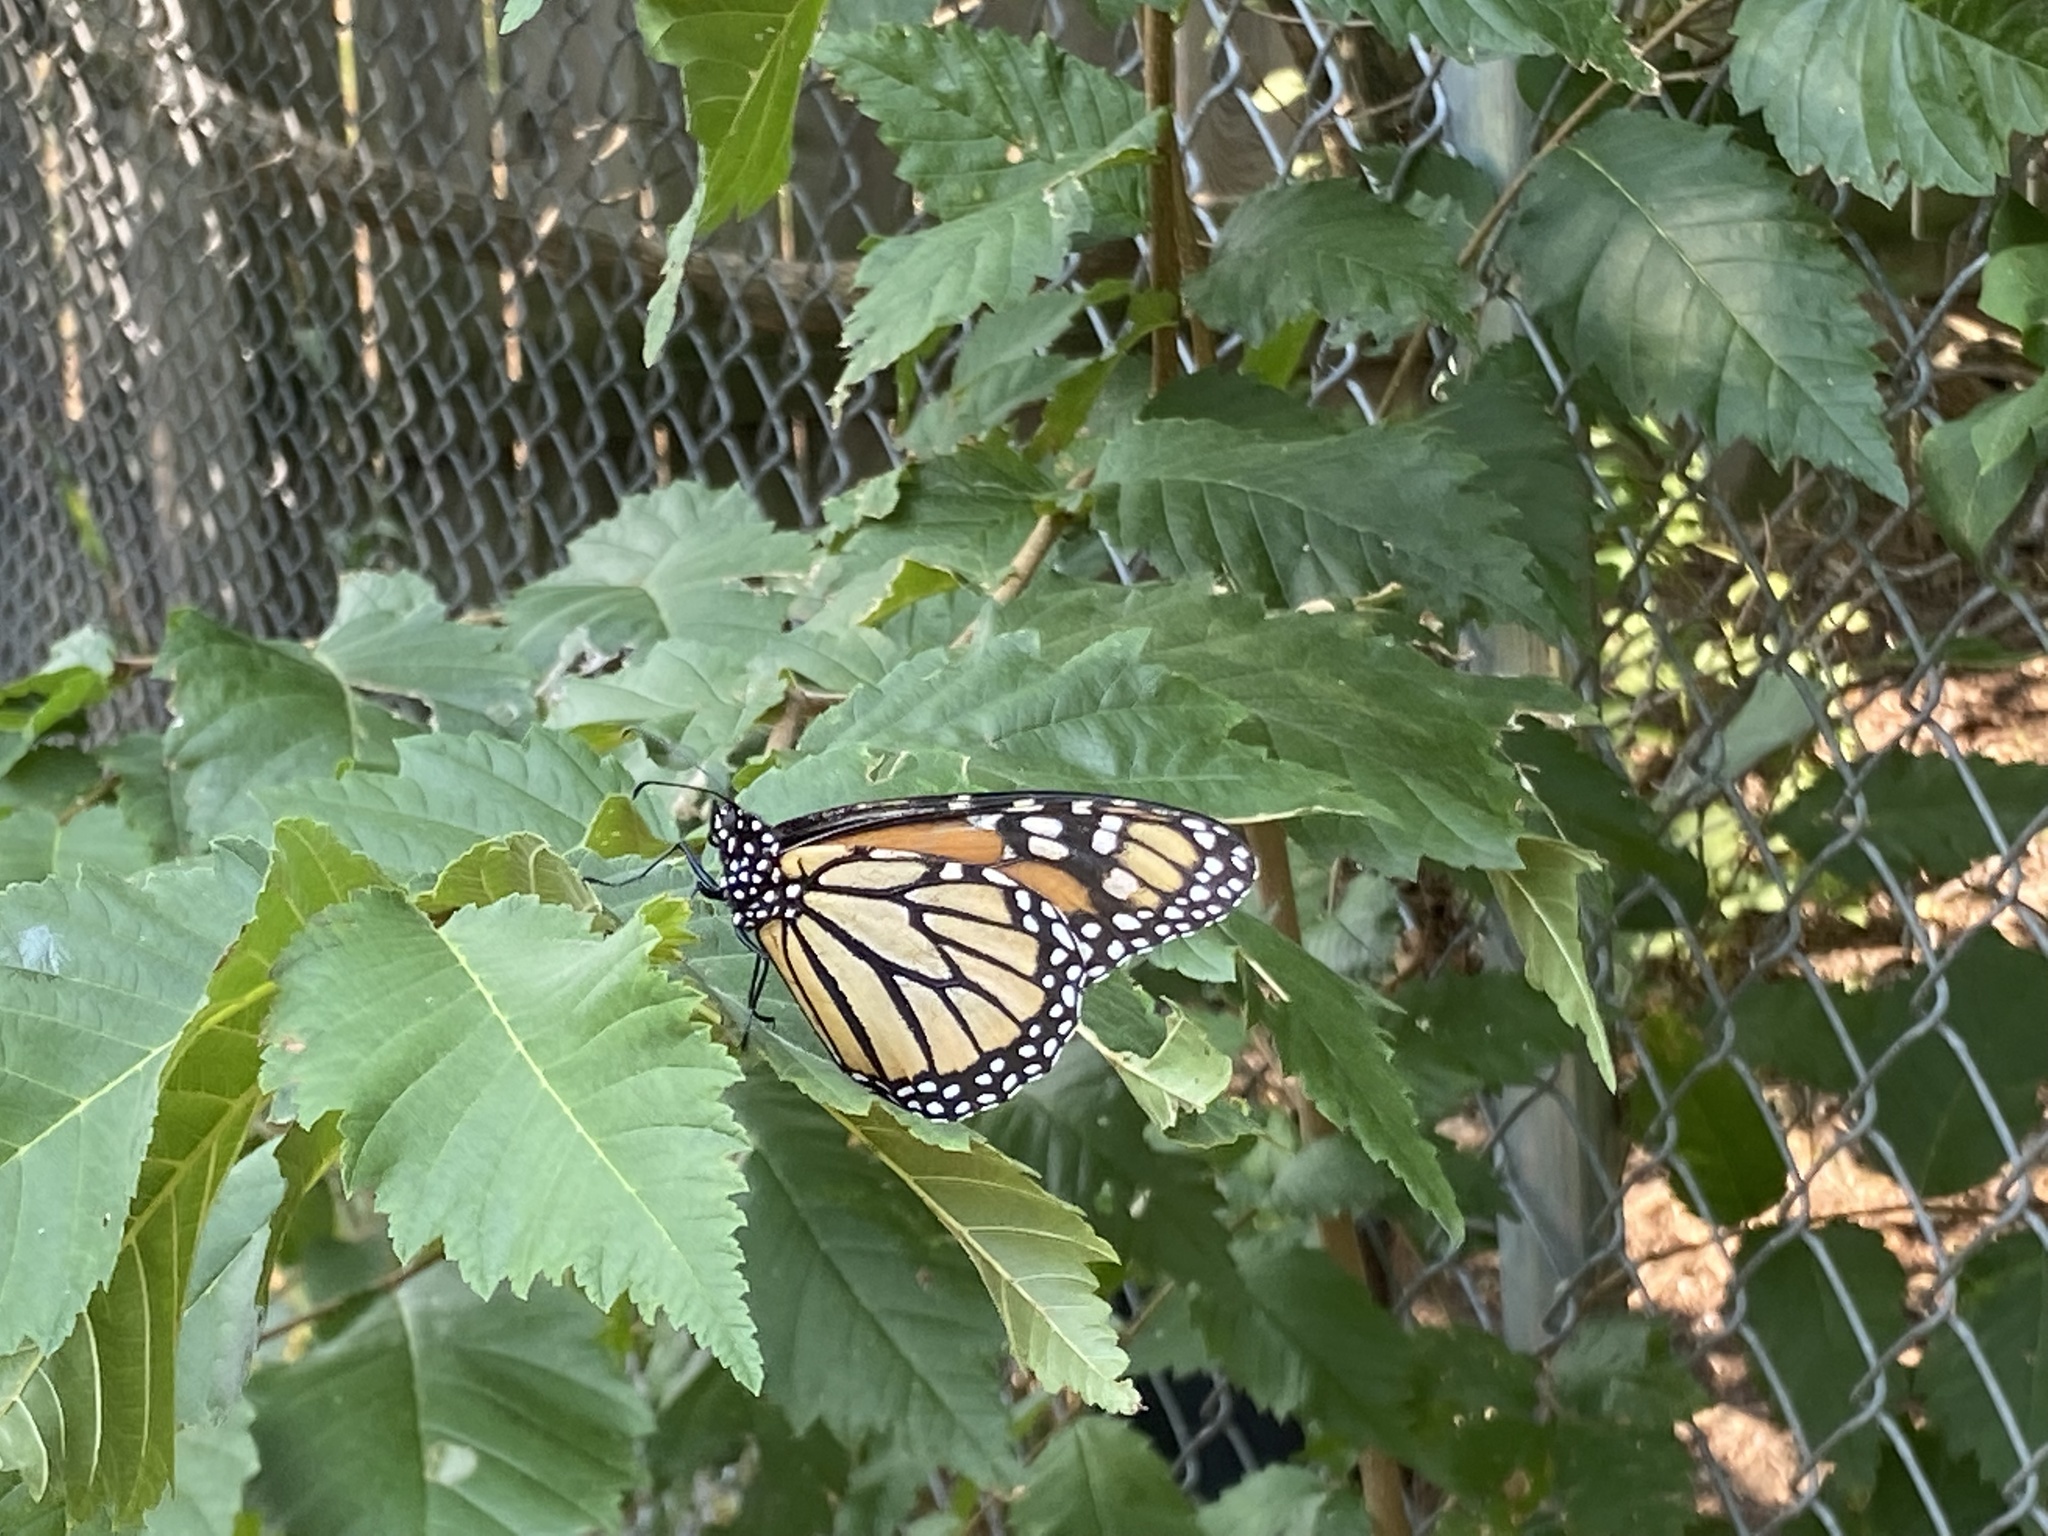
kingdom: Animalia
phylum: Arthropoda
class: Insecta
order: Lepidoptera
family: Nymphalidae
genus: Danaus
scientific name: Danaus plexippus
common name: Monarch
